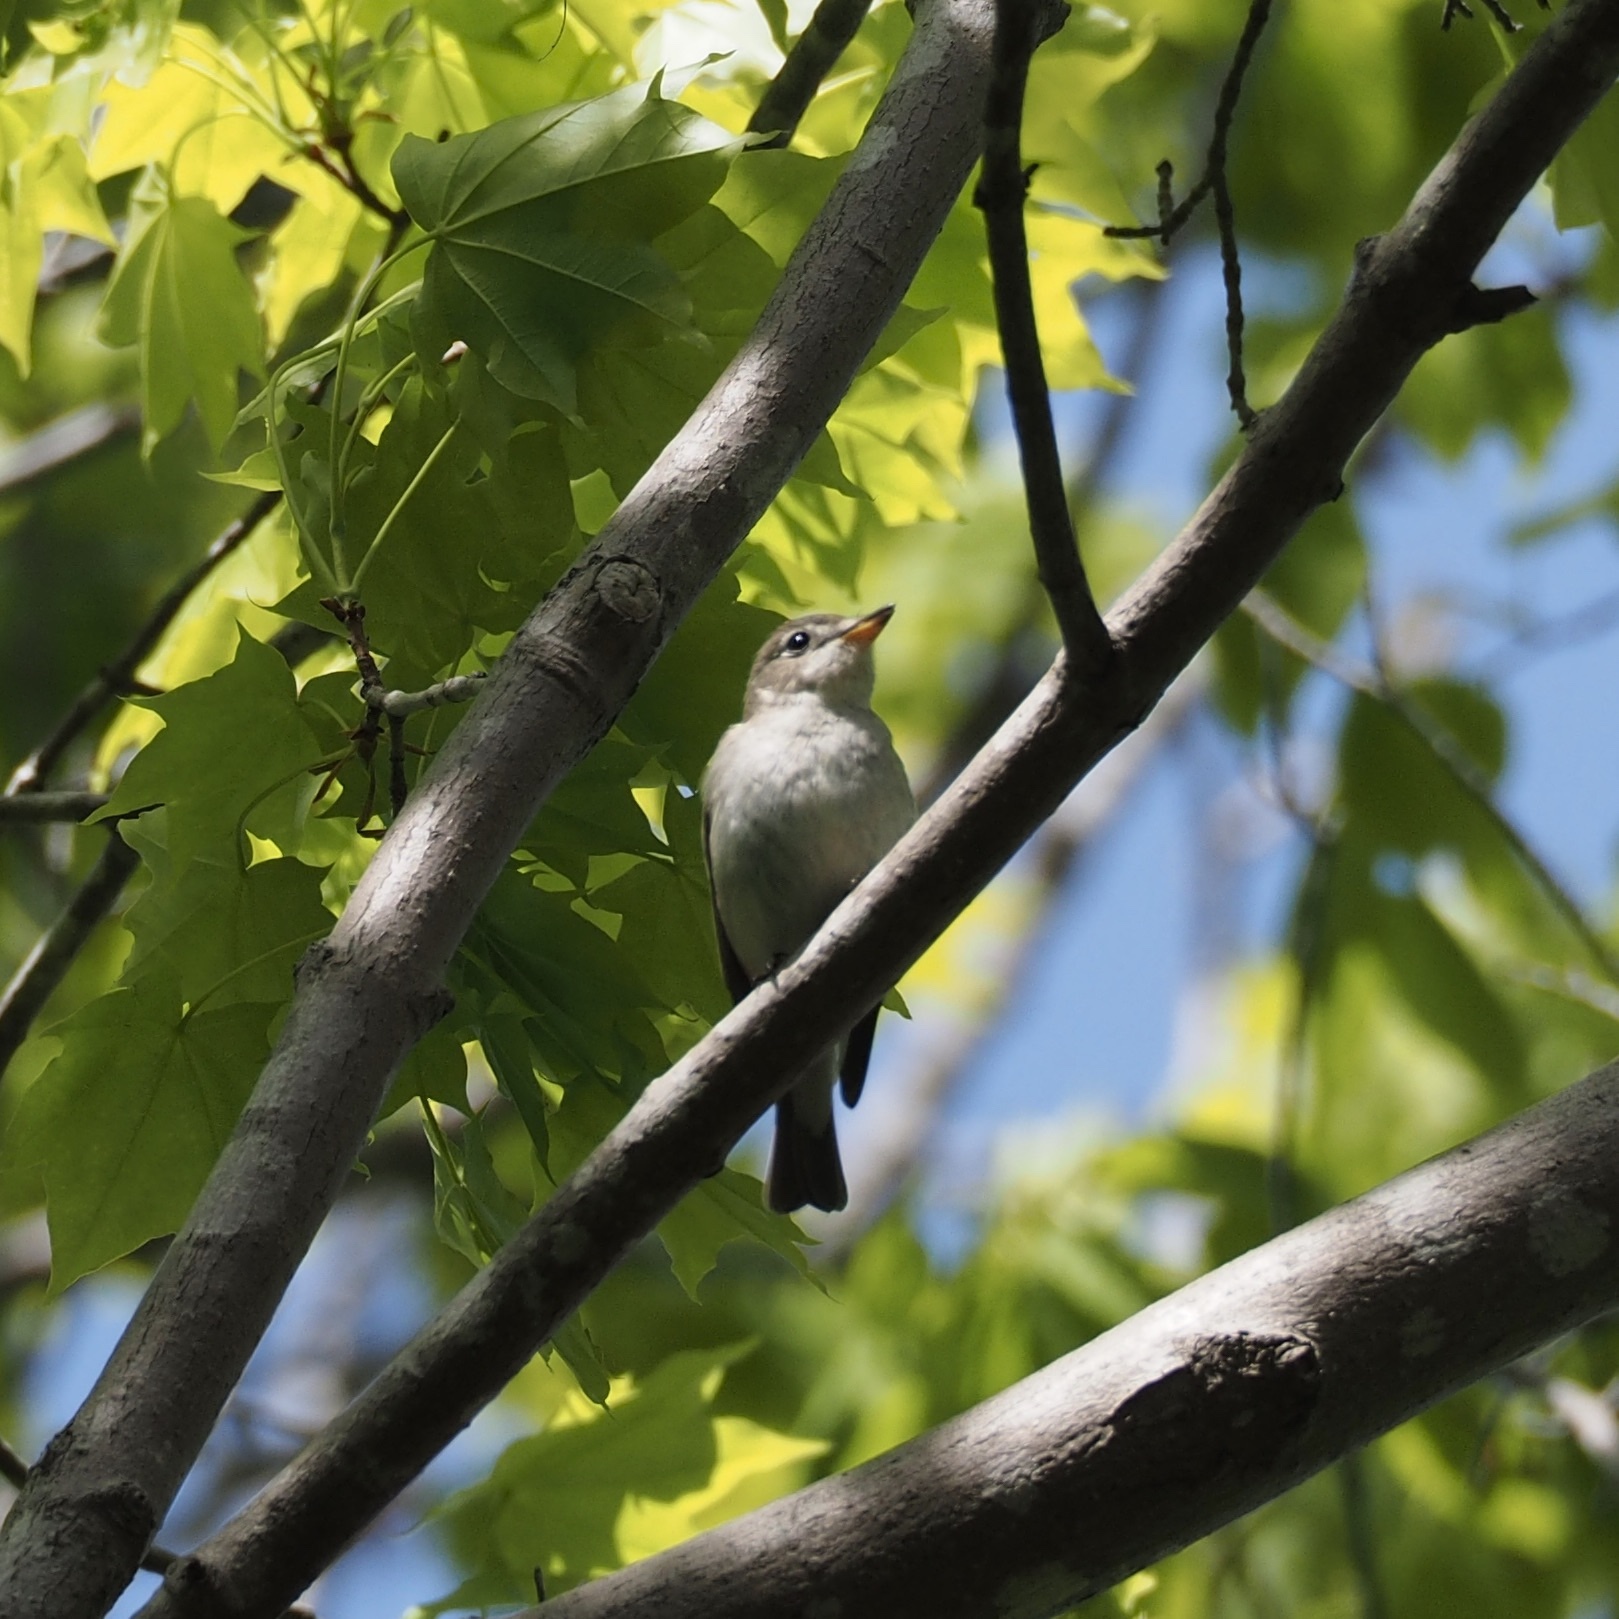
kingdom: Animalia
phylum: Chordata
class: Aves
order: Passeriformes
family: Muscicapidae
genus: Muscicapa
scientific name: Muscicapa latirostris
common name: Asian brown flycatcher
